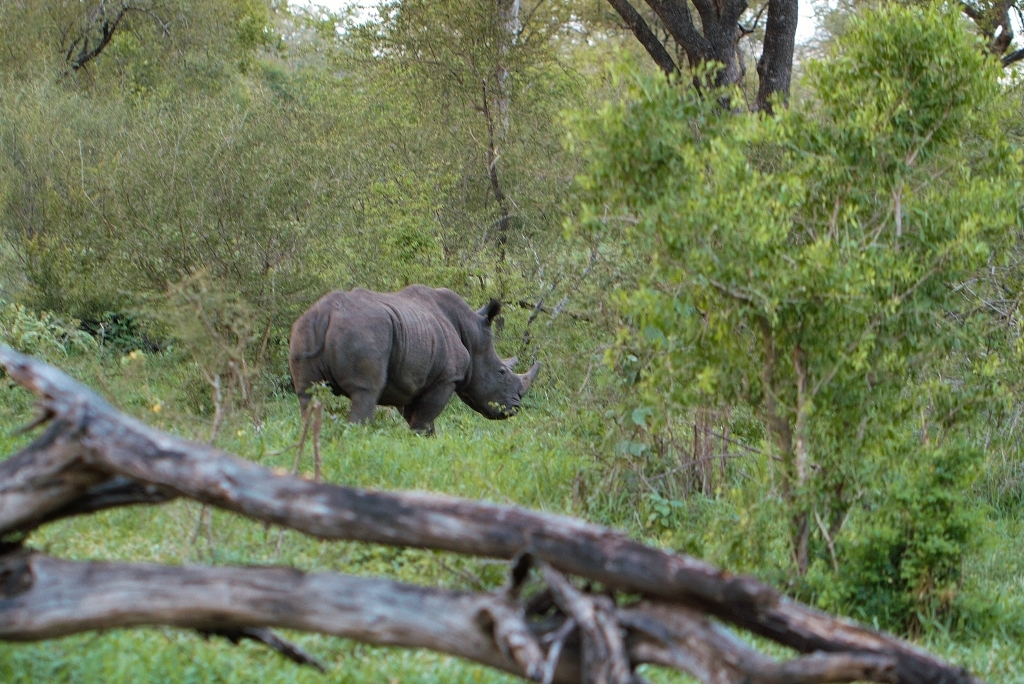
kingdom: Animalia
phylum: Chordata
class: Mammalia
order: Perissodactyla
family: Rhinocerotidae
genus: Ceratotherium
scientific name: Ceratotherium simum
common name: White rhinoceros
